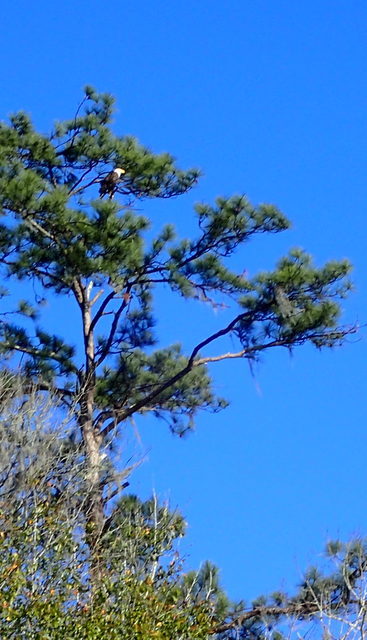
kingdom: Animalia
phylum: Chordata
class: Aves
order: Accipitriformes
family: Accipitridae
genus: Haliaeetus
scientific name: Haliaeetus leucocephalus
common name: Bald eagle
